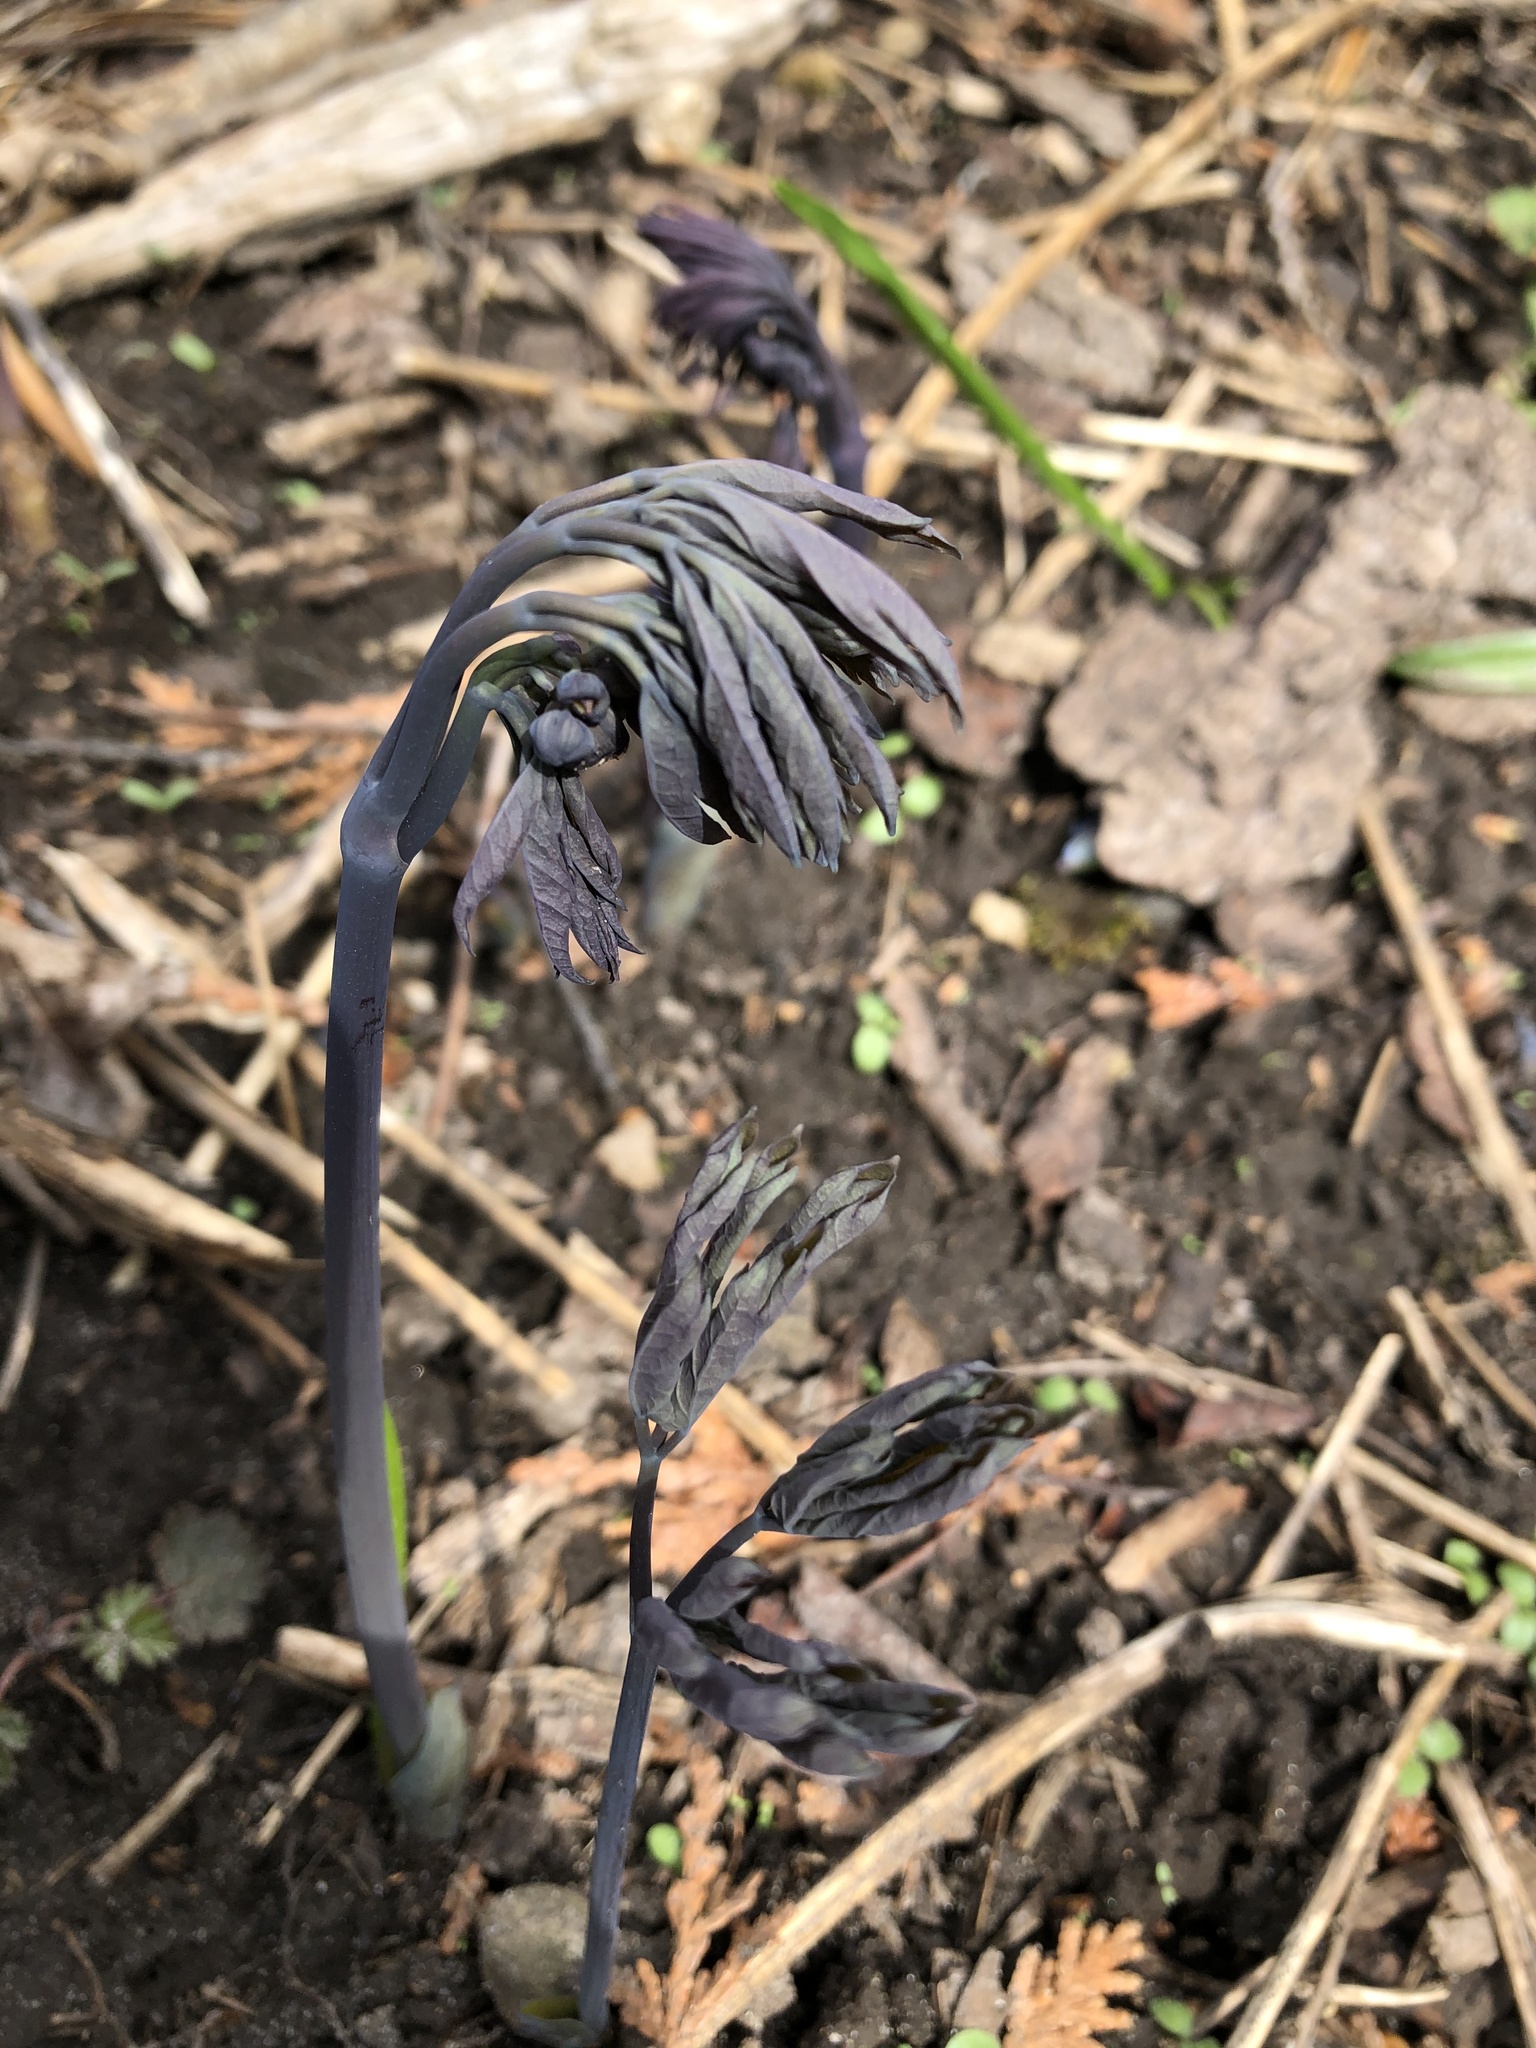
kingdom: Plantae
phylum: Tracheophyta
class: Magnoliopsida
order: Ranunculales
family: Berberidaceae
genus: Caulophyllum
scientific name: Caulophyllum giganteum
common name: Blue cohosh
